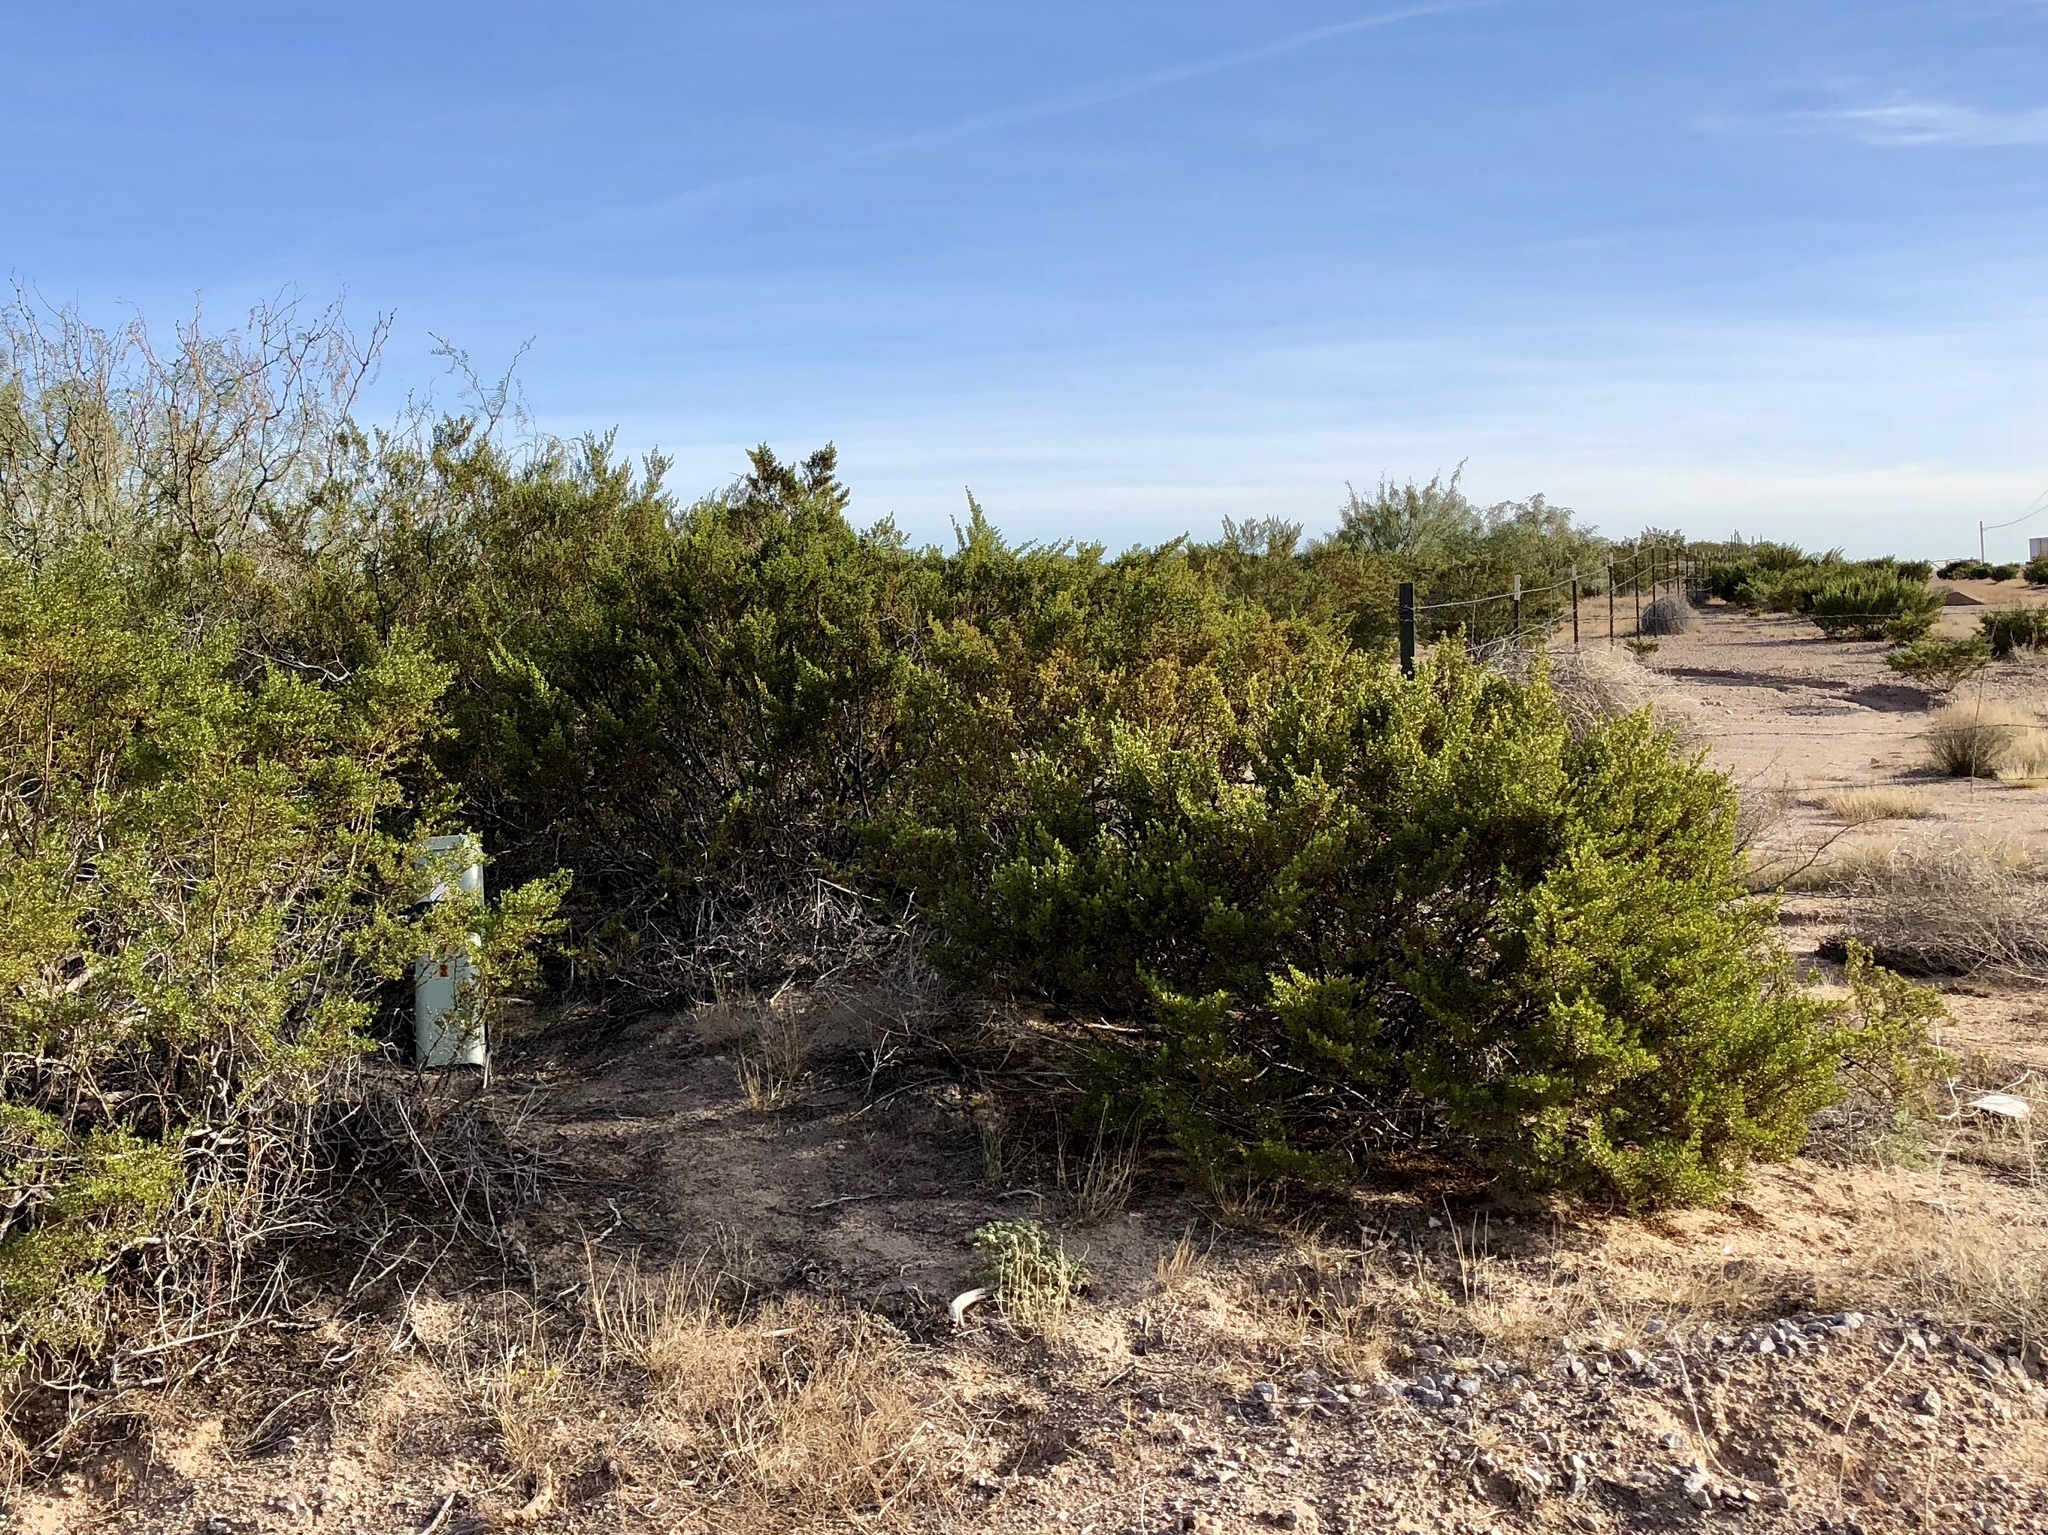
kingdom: Plantae
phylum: Tracheophyta
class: Magnoliopsida
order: Zygophyllales
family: Zygophyllaceae
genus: Larrea
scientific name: Larrea tridentata
